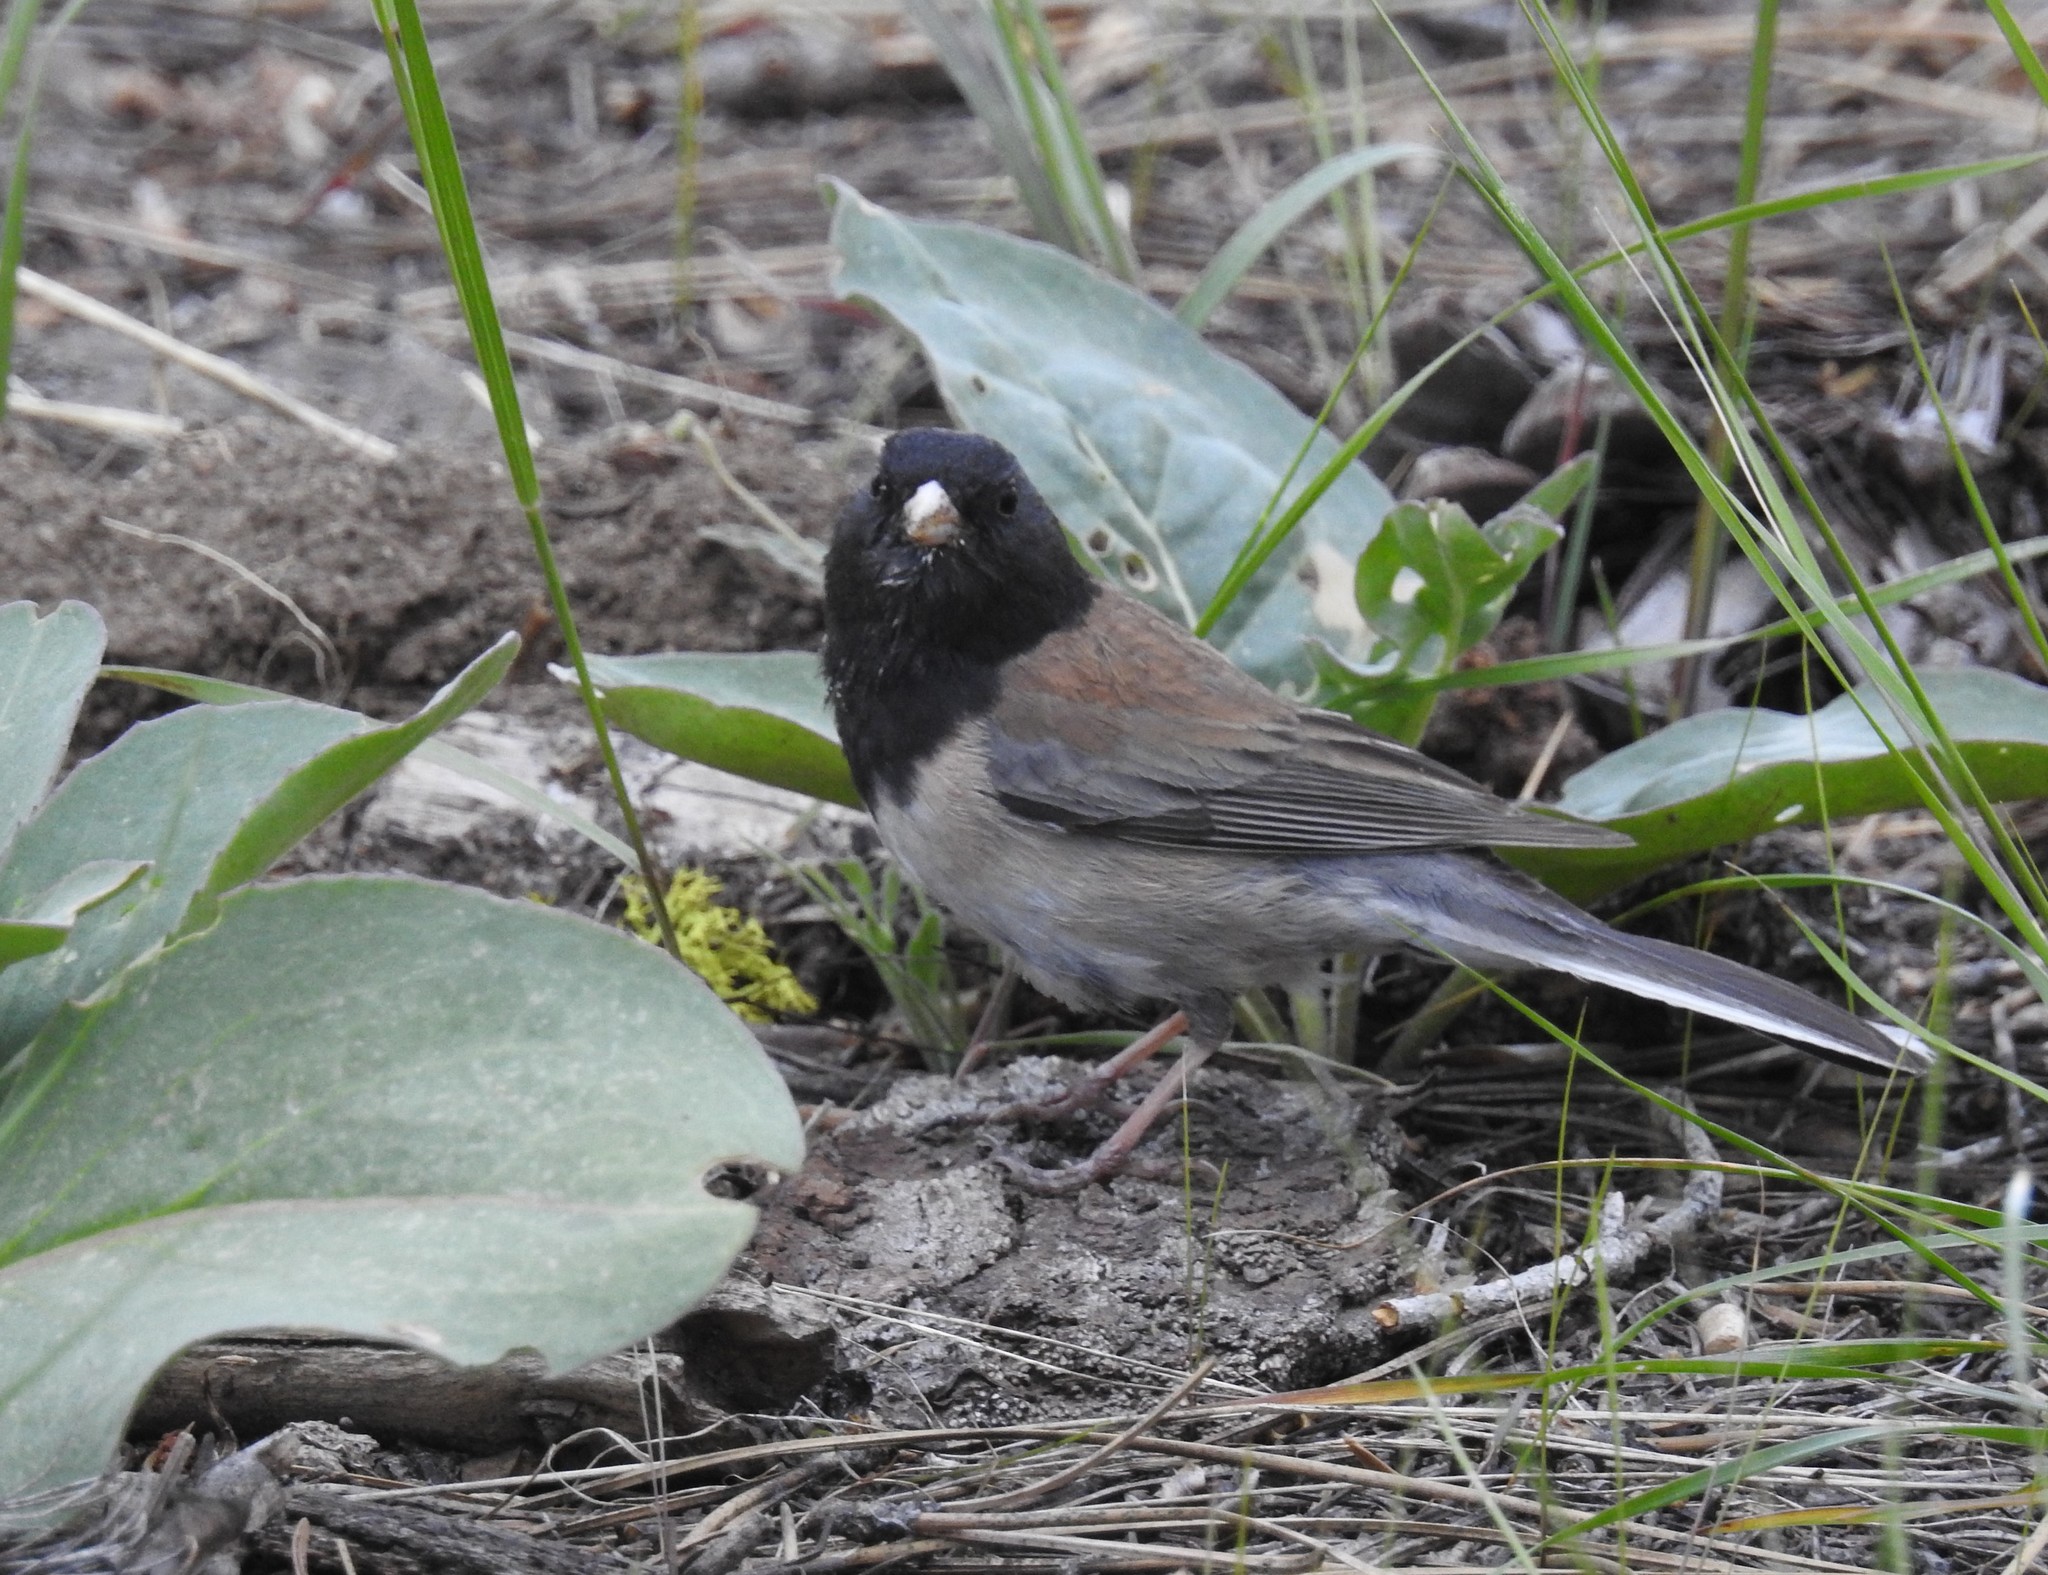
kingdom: Animalia
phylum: Chordata
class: Aves
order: Passeriformes
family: Passerellidae
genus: Junco
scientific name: Junco hyemalis
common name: Dark-eyed junco
